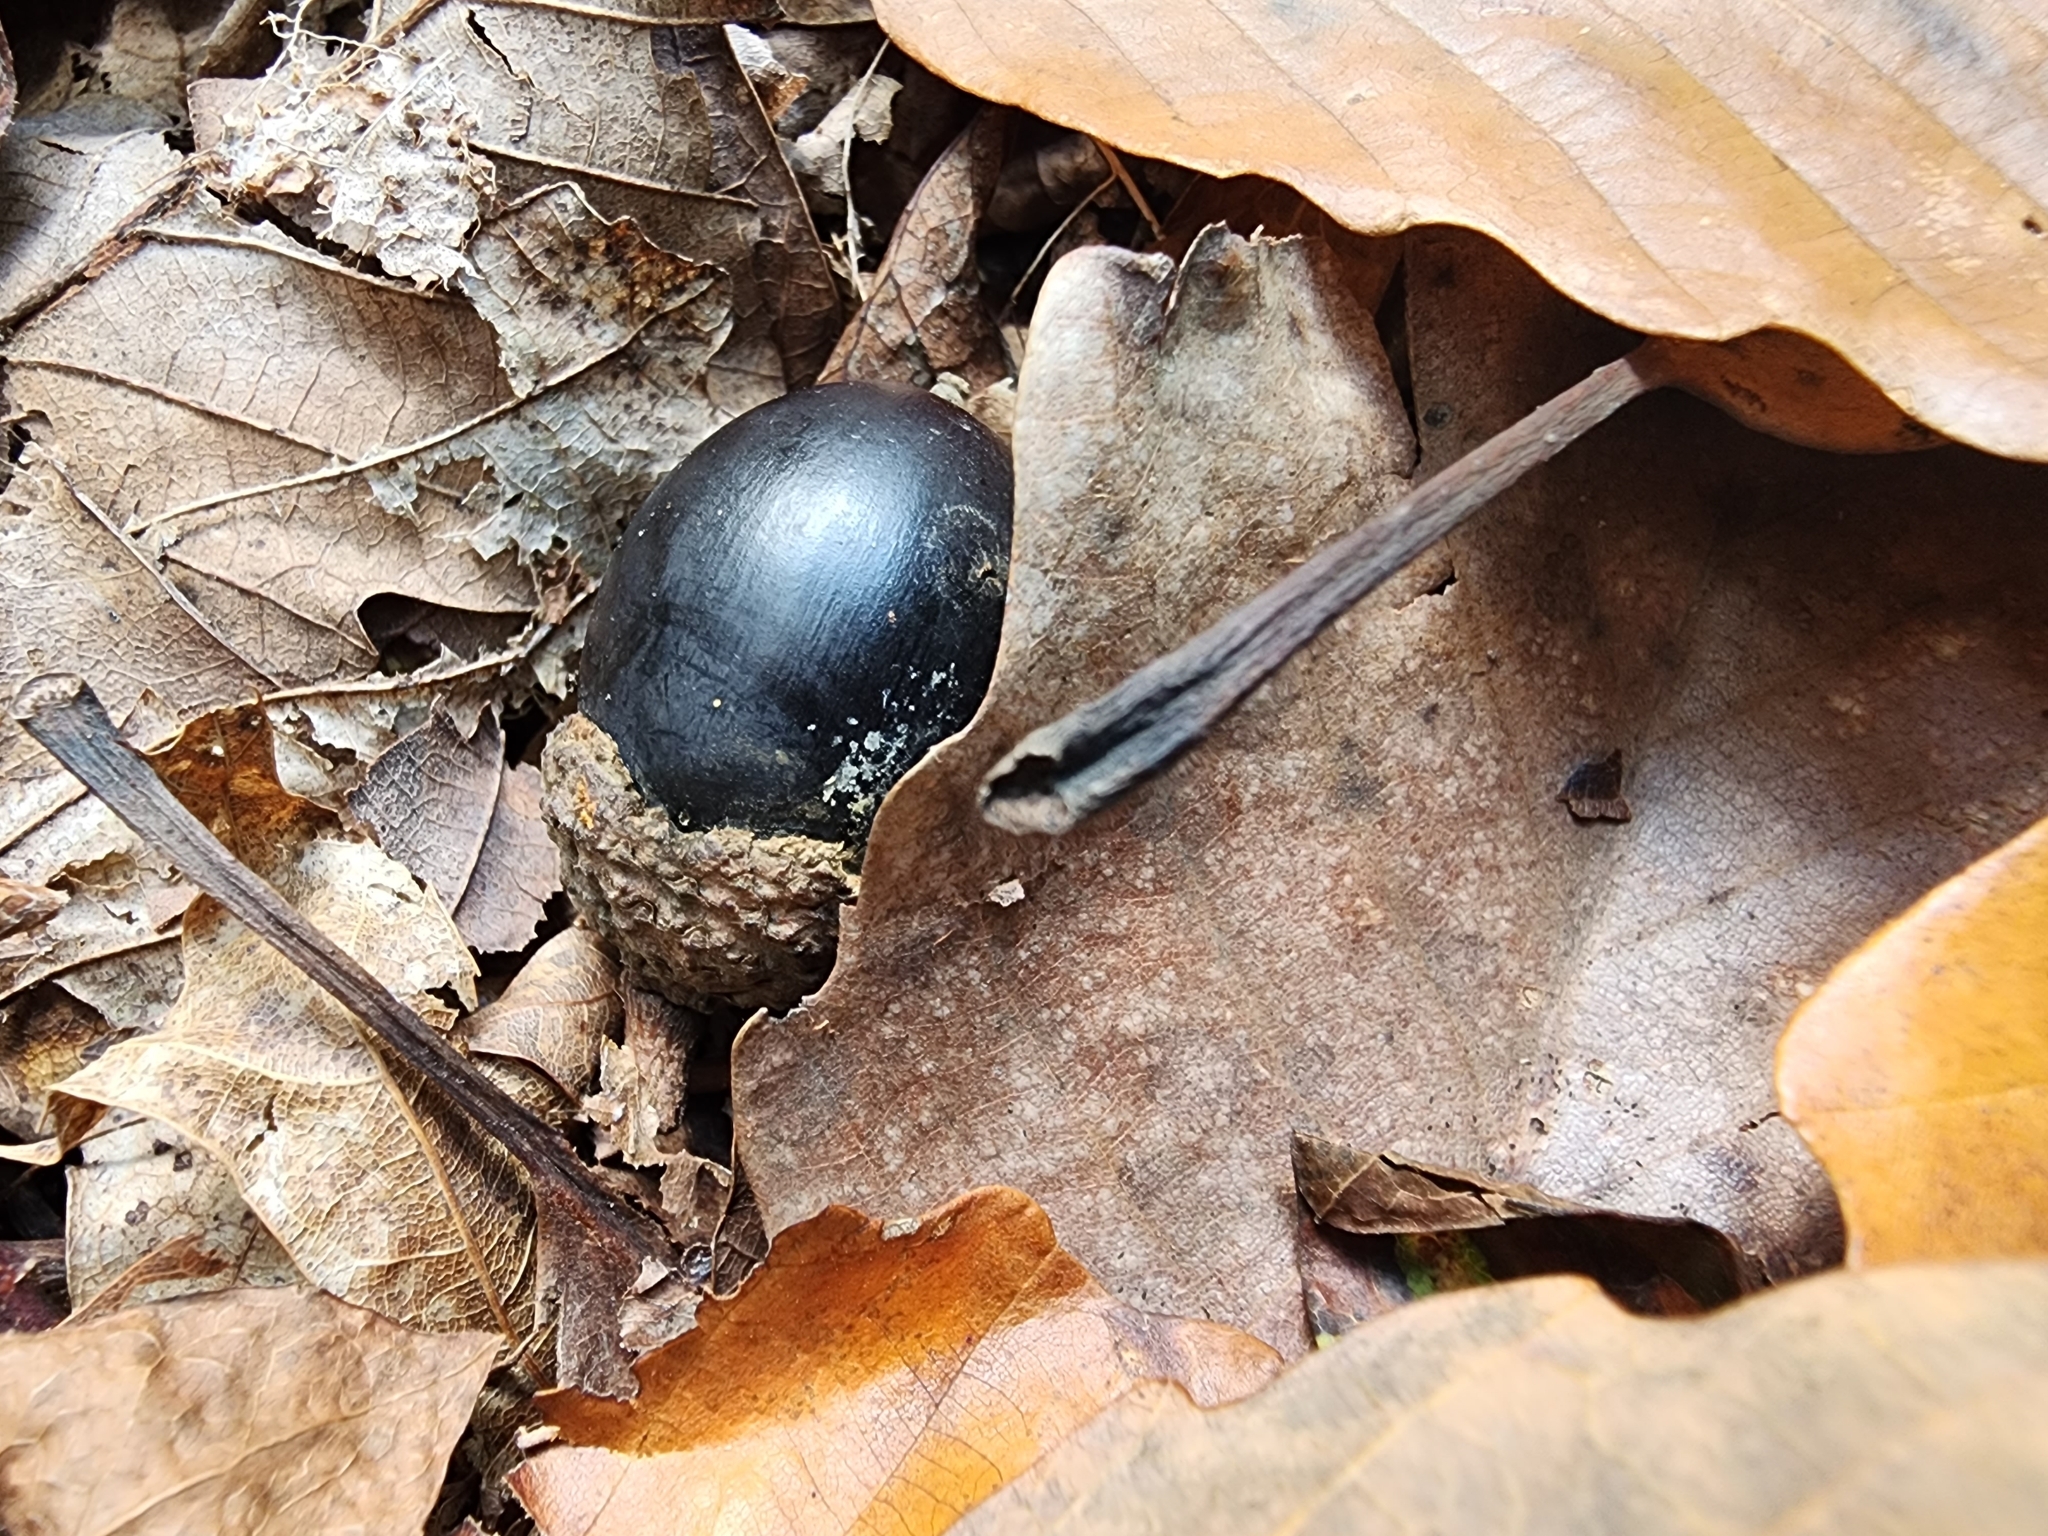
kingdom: Plantae
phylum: Tracheophyta
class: Magnoliopsida
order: Fagales
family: Fagaceae
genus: Quercus
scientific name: Quercus montana
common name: Chestnut oak
